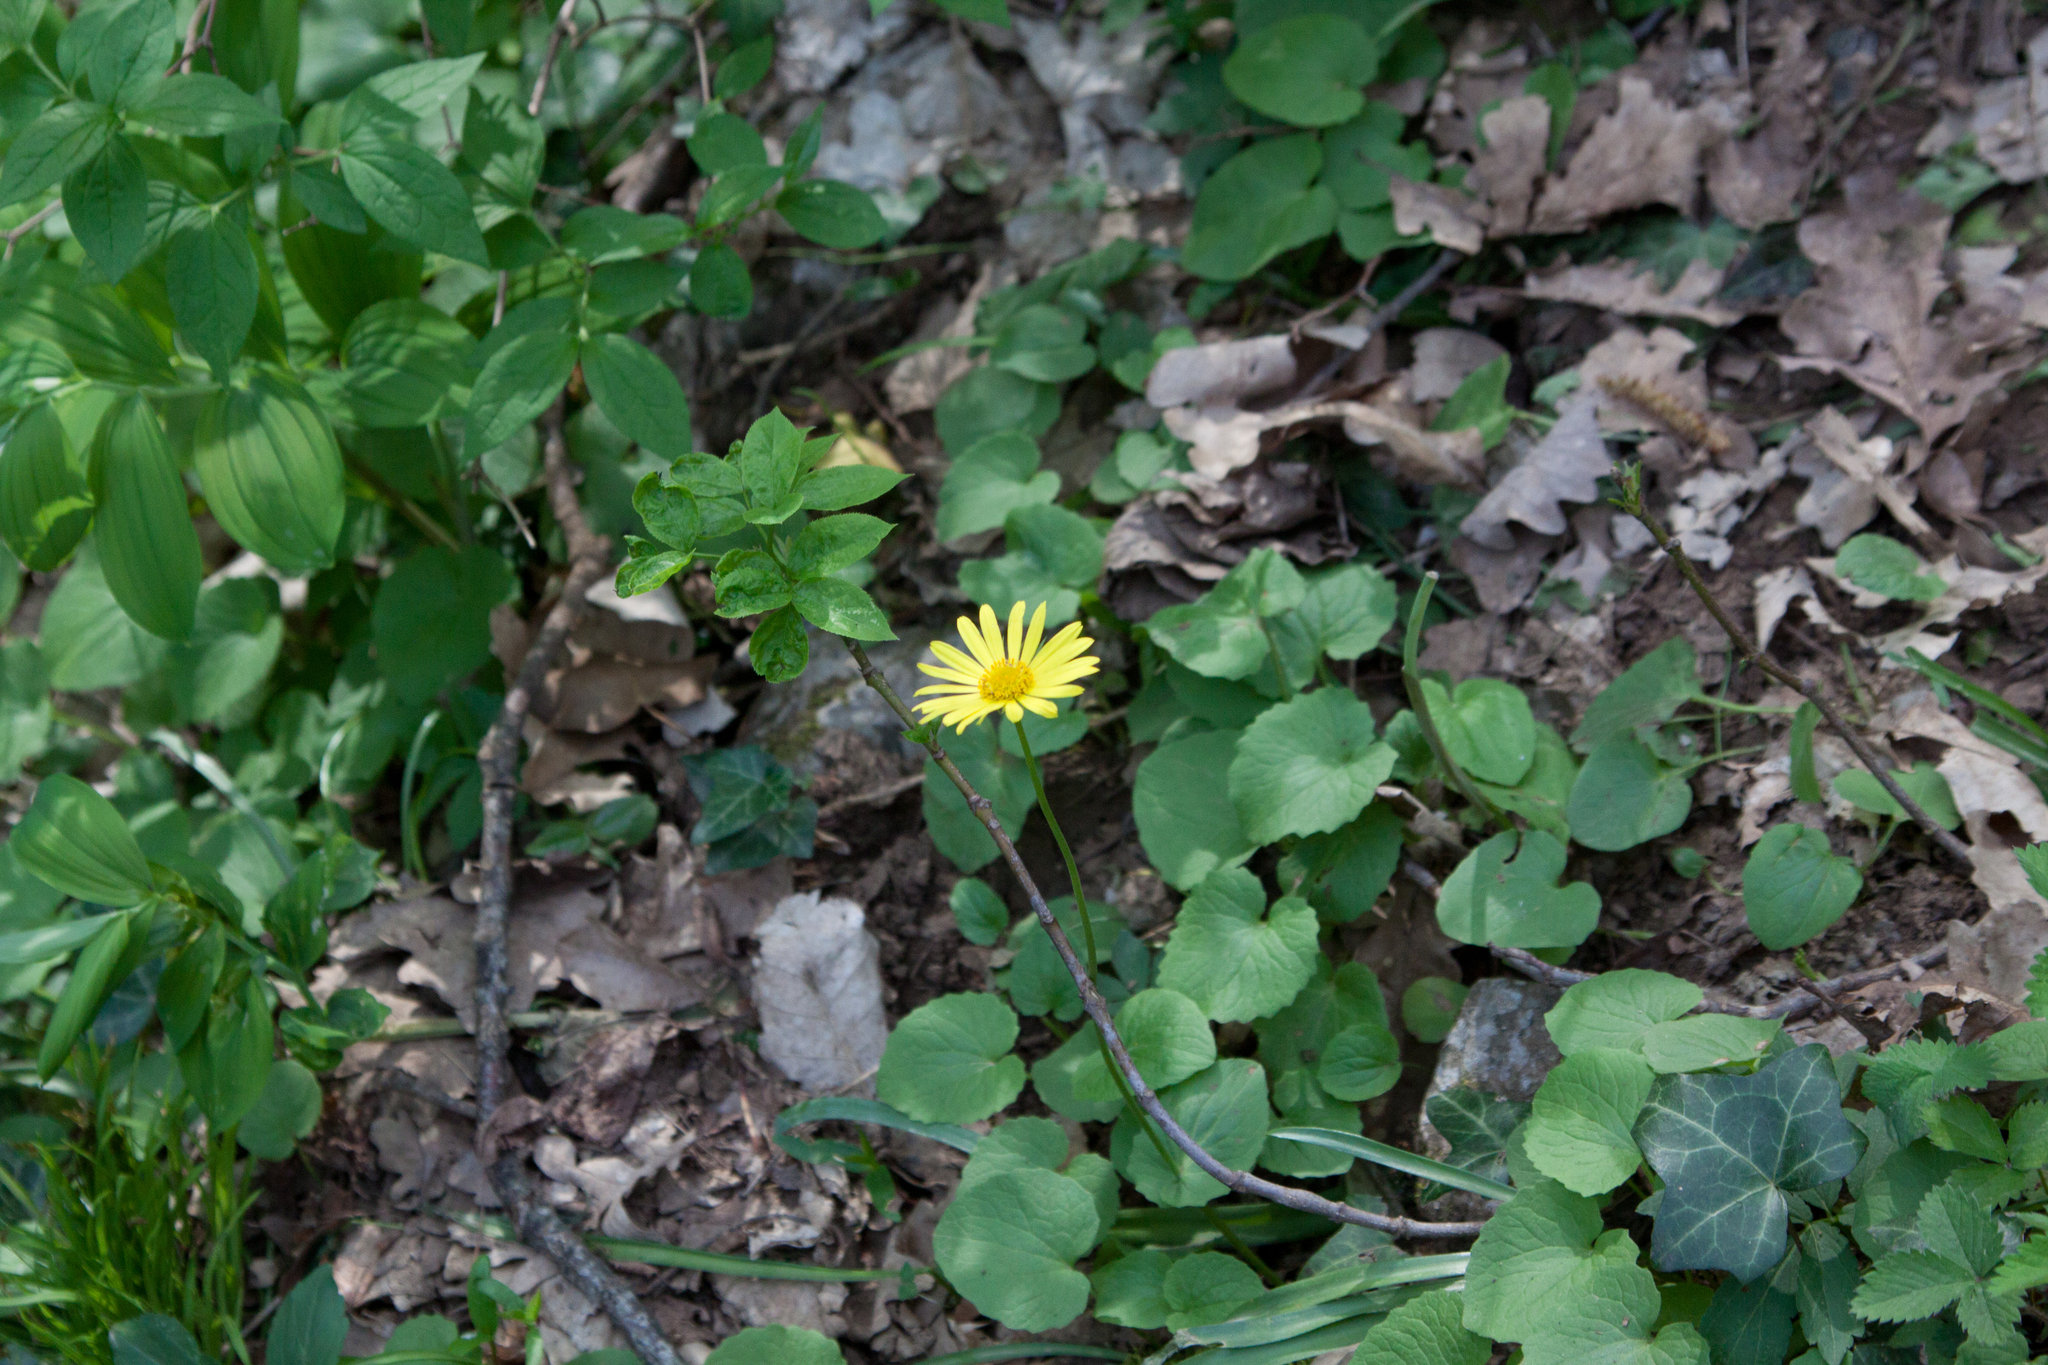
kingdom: Plantae
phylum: Tracheophyta
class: Magnoliopsida
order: Asterales
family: Asteraceae
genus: Doronicum
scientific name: Doronicum
